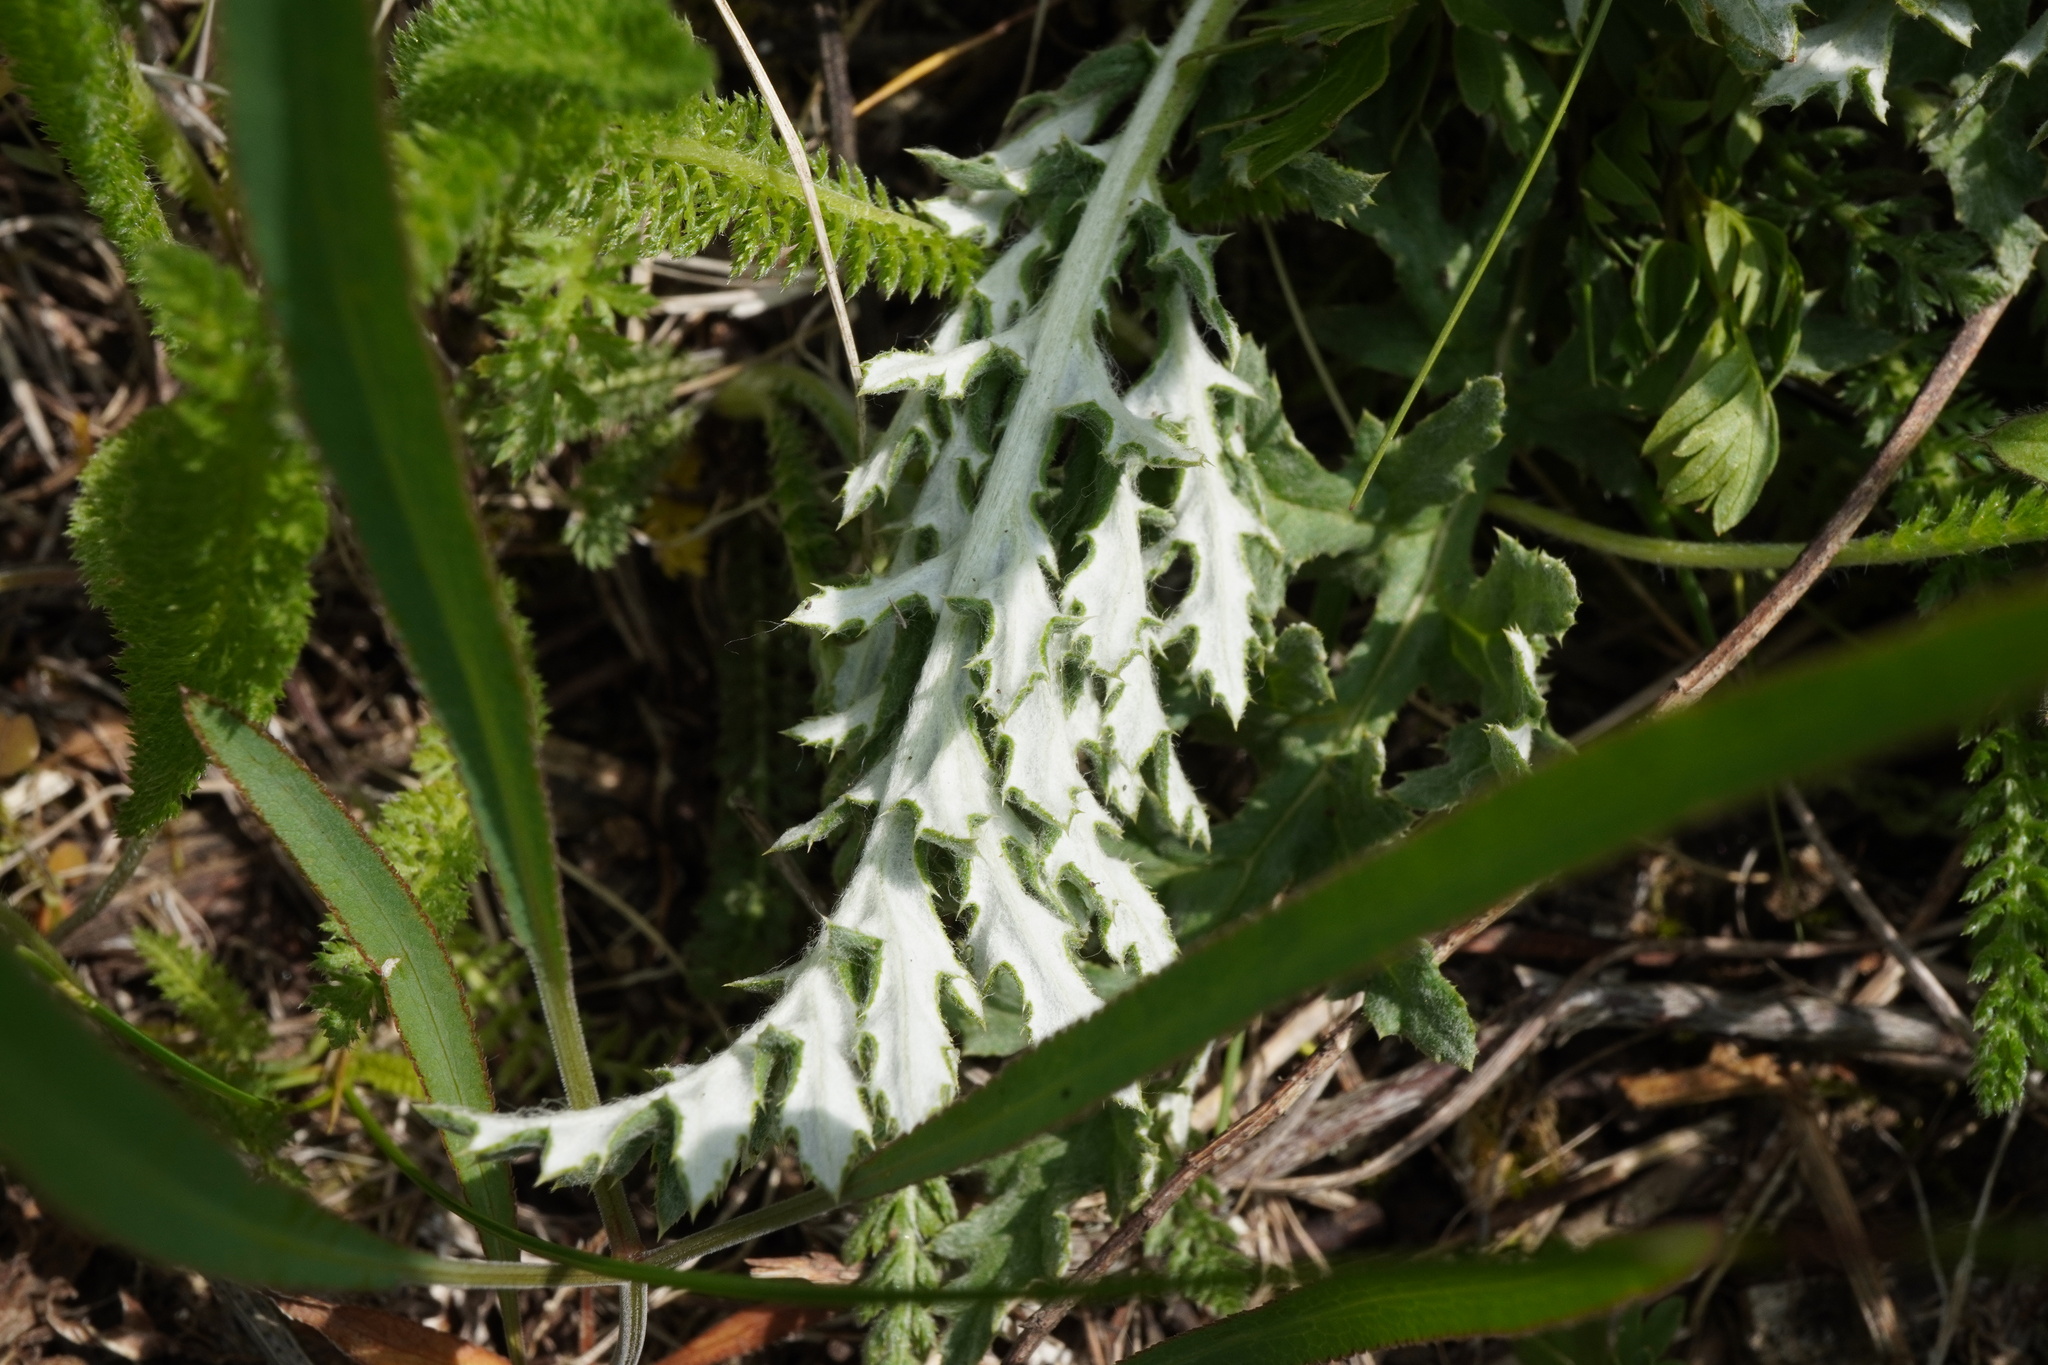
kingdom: Plantae
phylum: Tracheophyta
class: Magnoliopsida
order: Asterales
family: Asteraceae
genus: Echinops
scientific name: Echinops ritro
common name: Globe thistle
